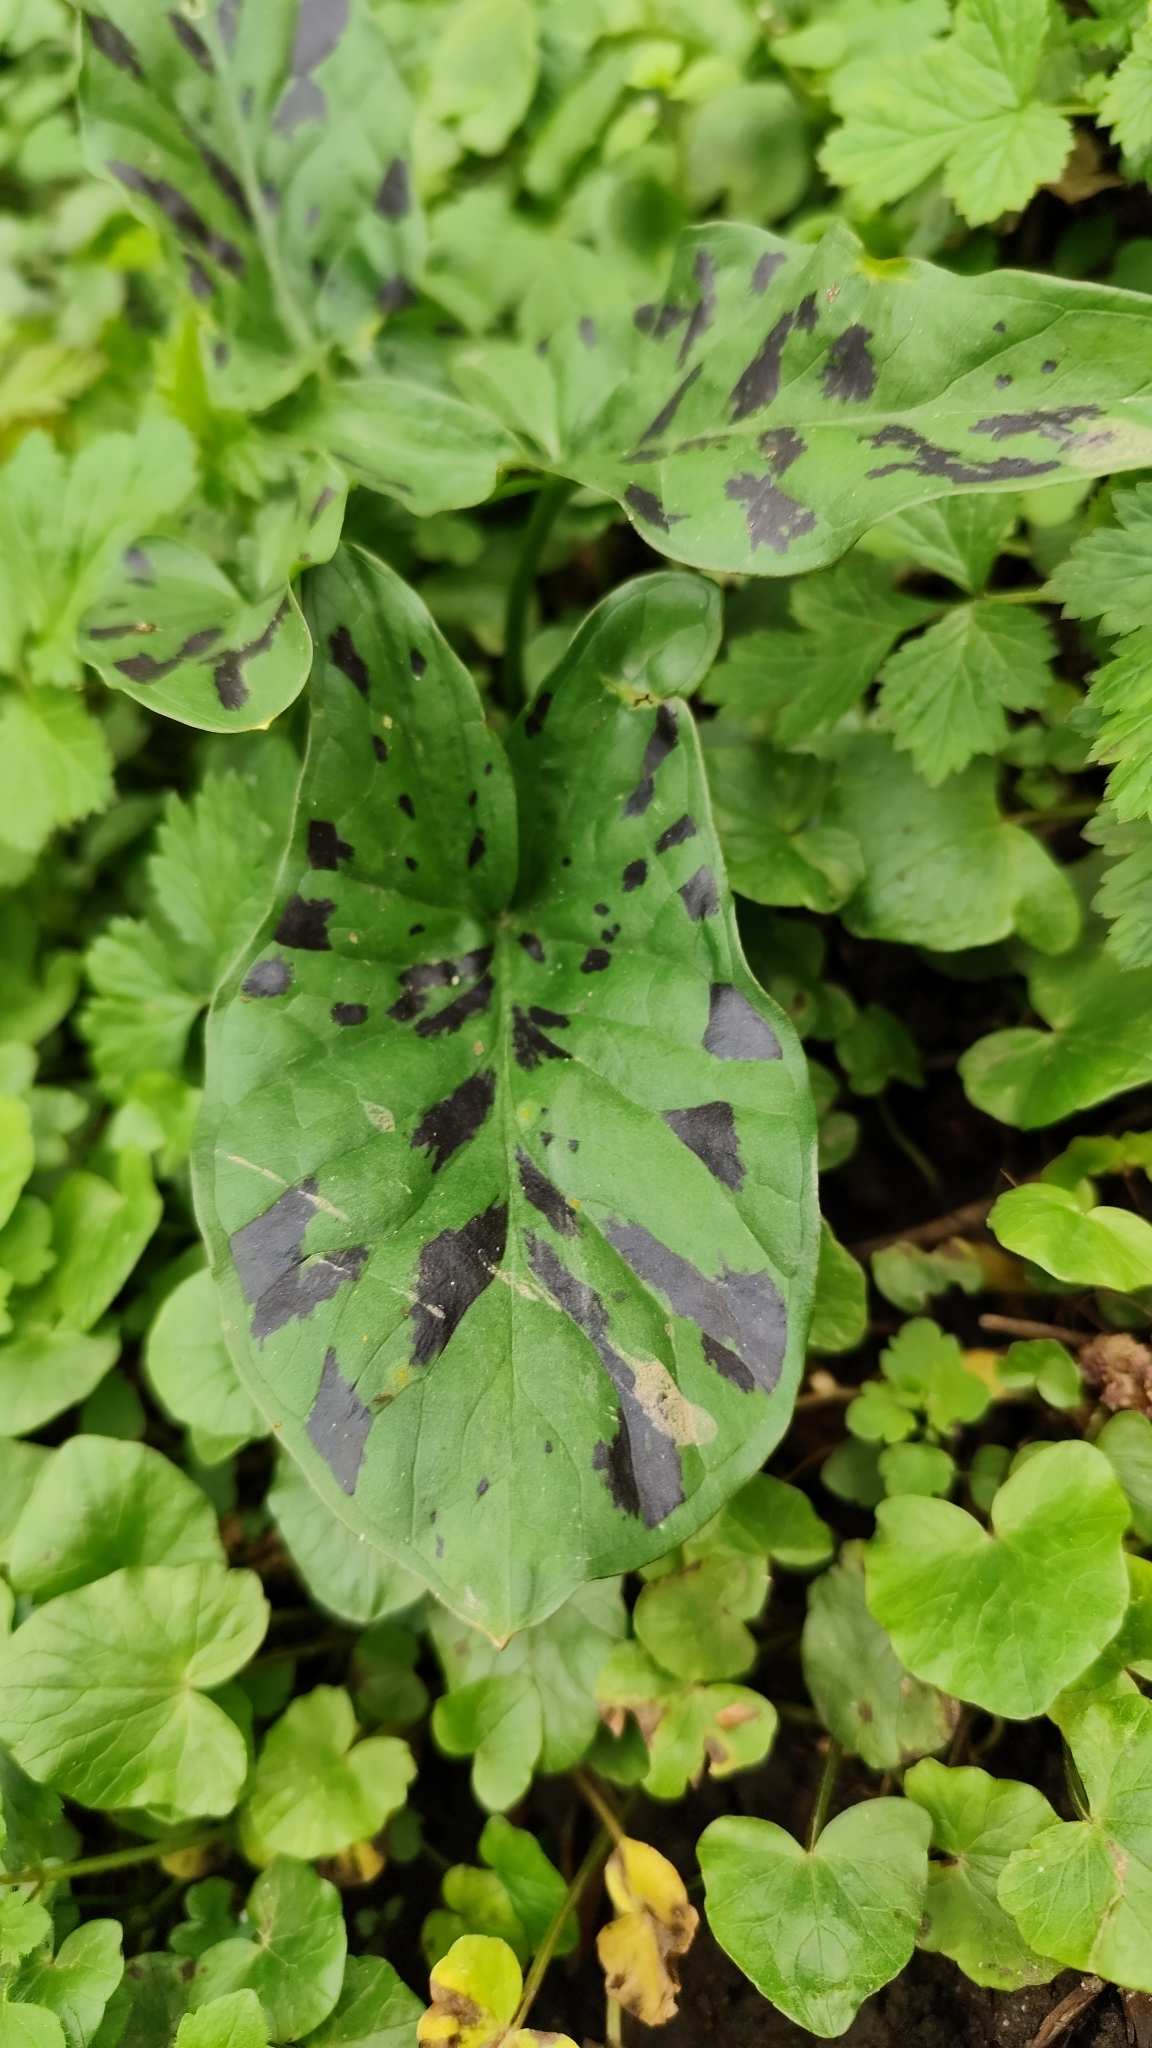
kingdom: Plantae
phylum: Tracheophyta
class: Liliopsida
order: Alismatales
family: Araceae
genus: Arum
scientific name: Arum maculatum
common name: Lords-and-ladies
